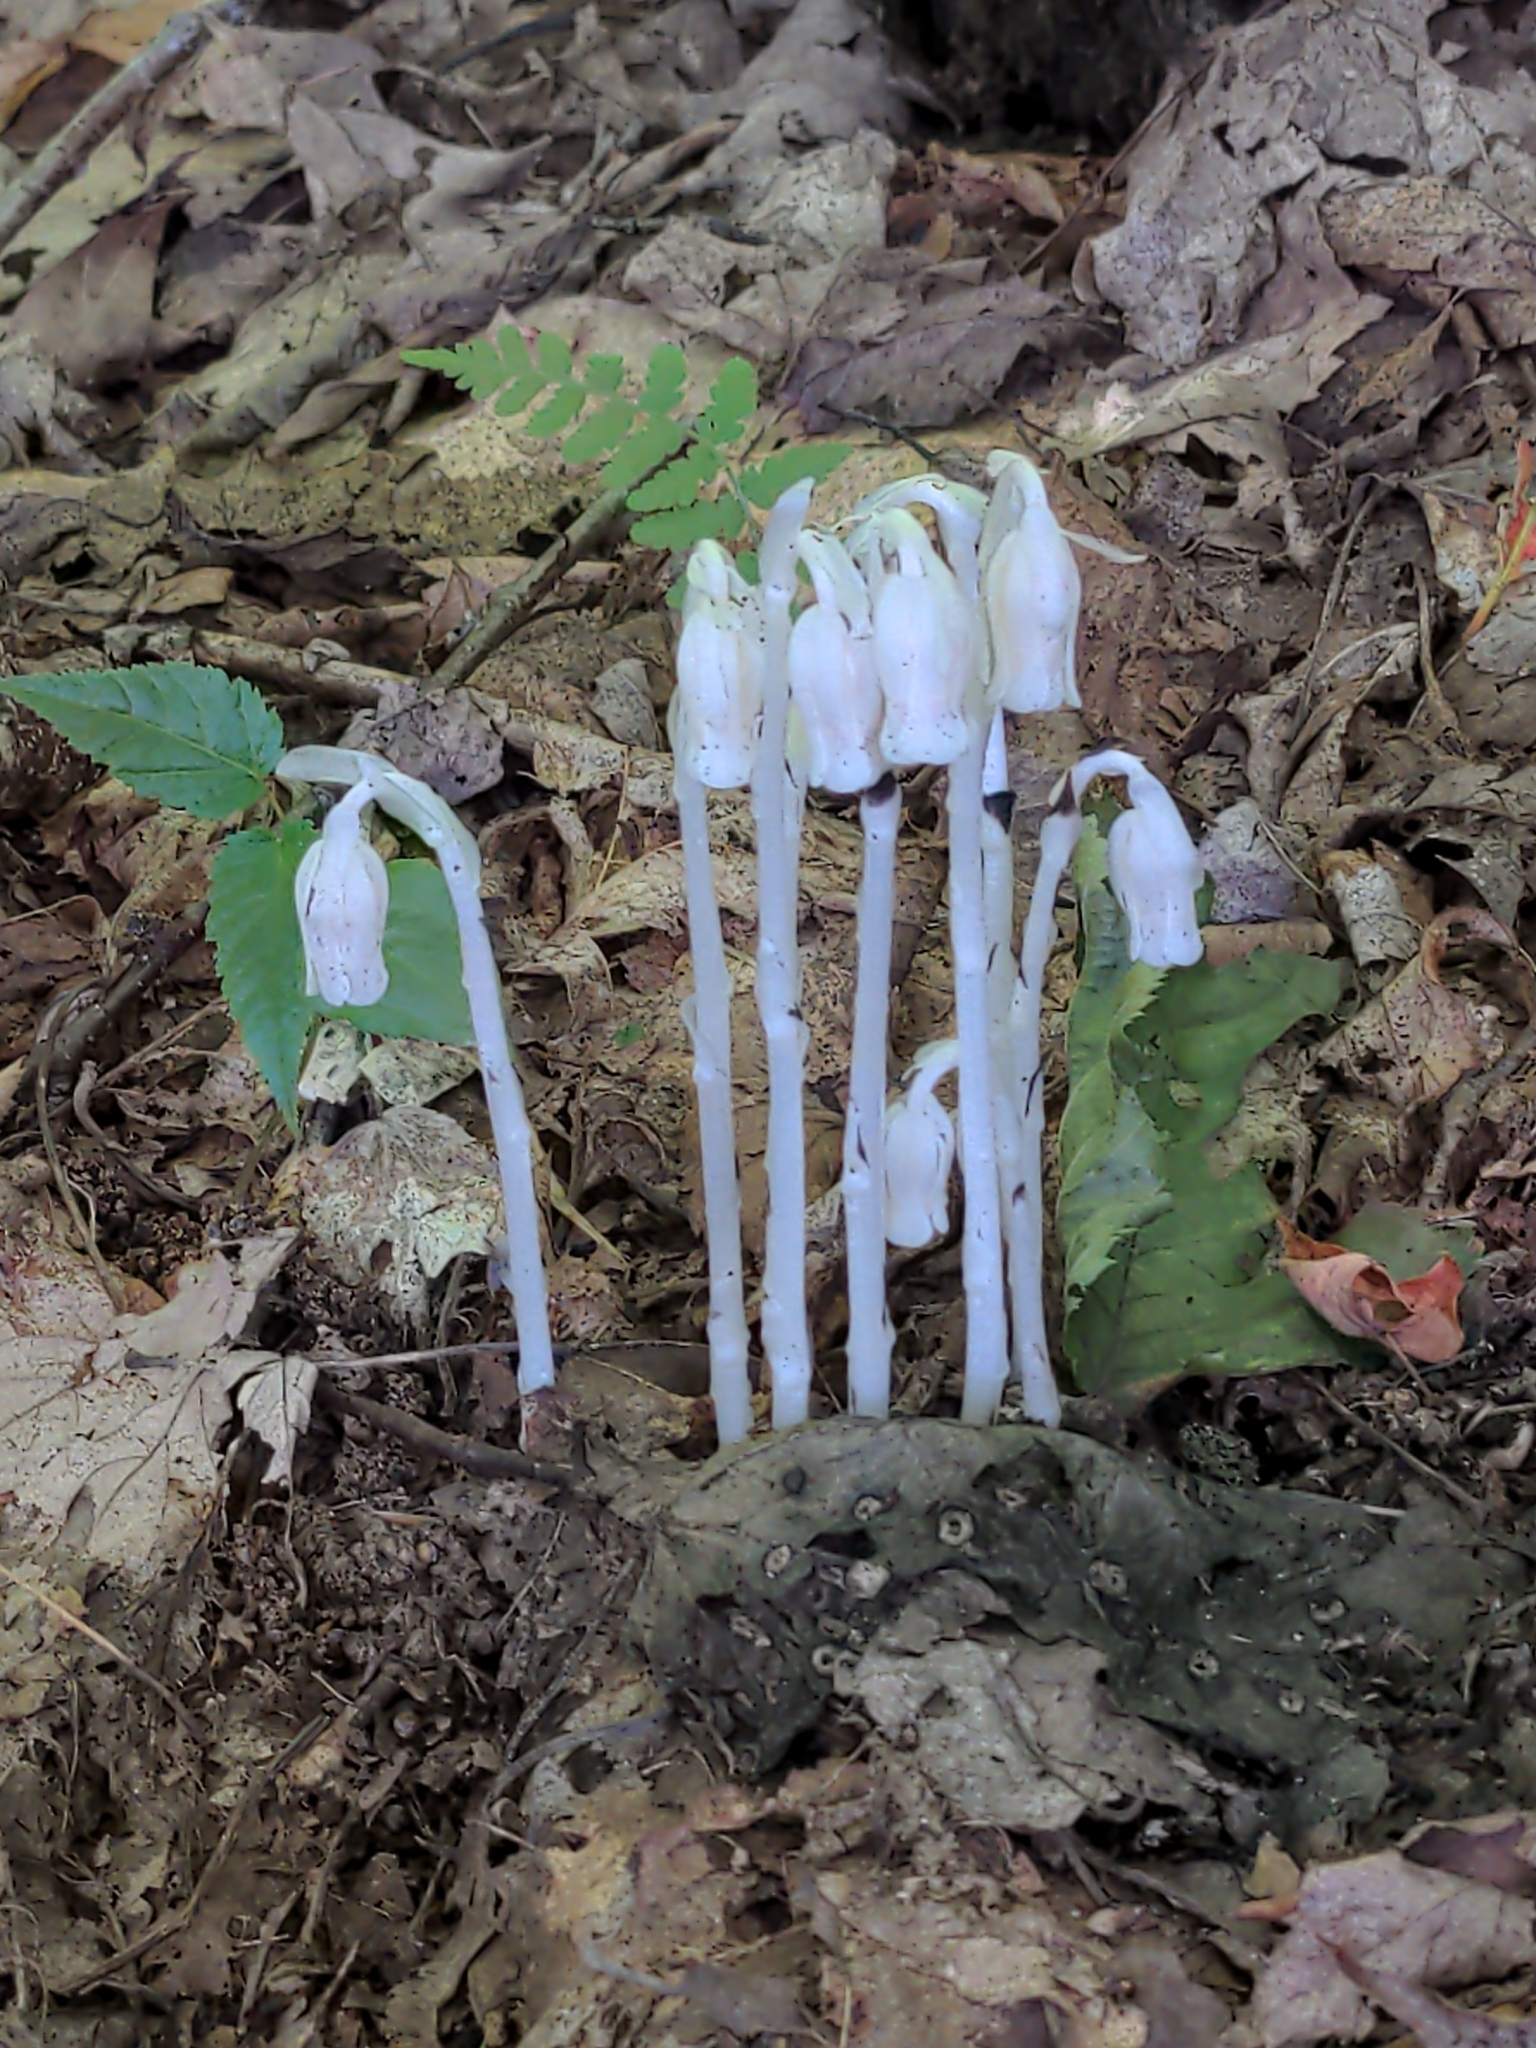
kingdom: Plantae
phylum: Tracheophyta
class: Magnoliopsida
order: Ericales
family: Ericaceae
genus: Monotropa
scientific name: Monotropa uniflora
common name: Convulsion root
